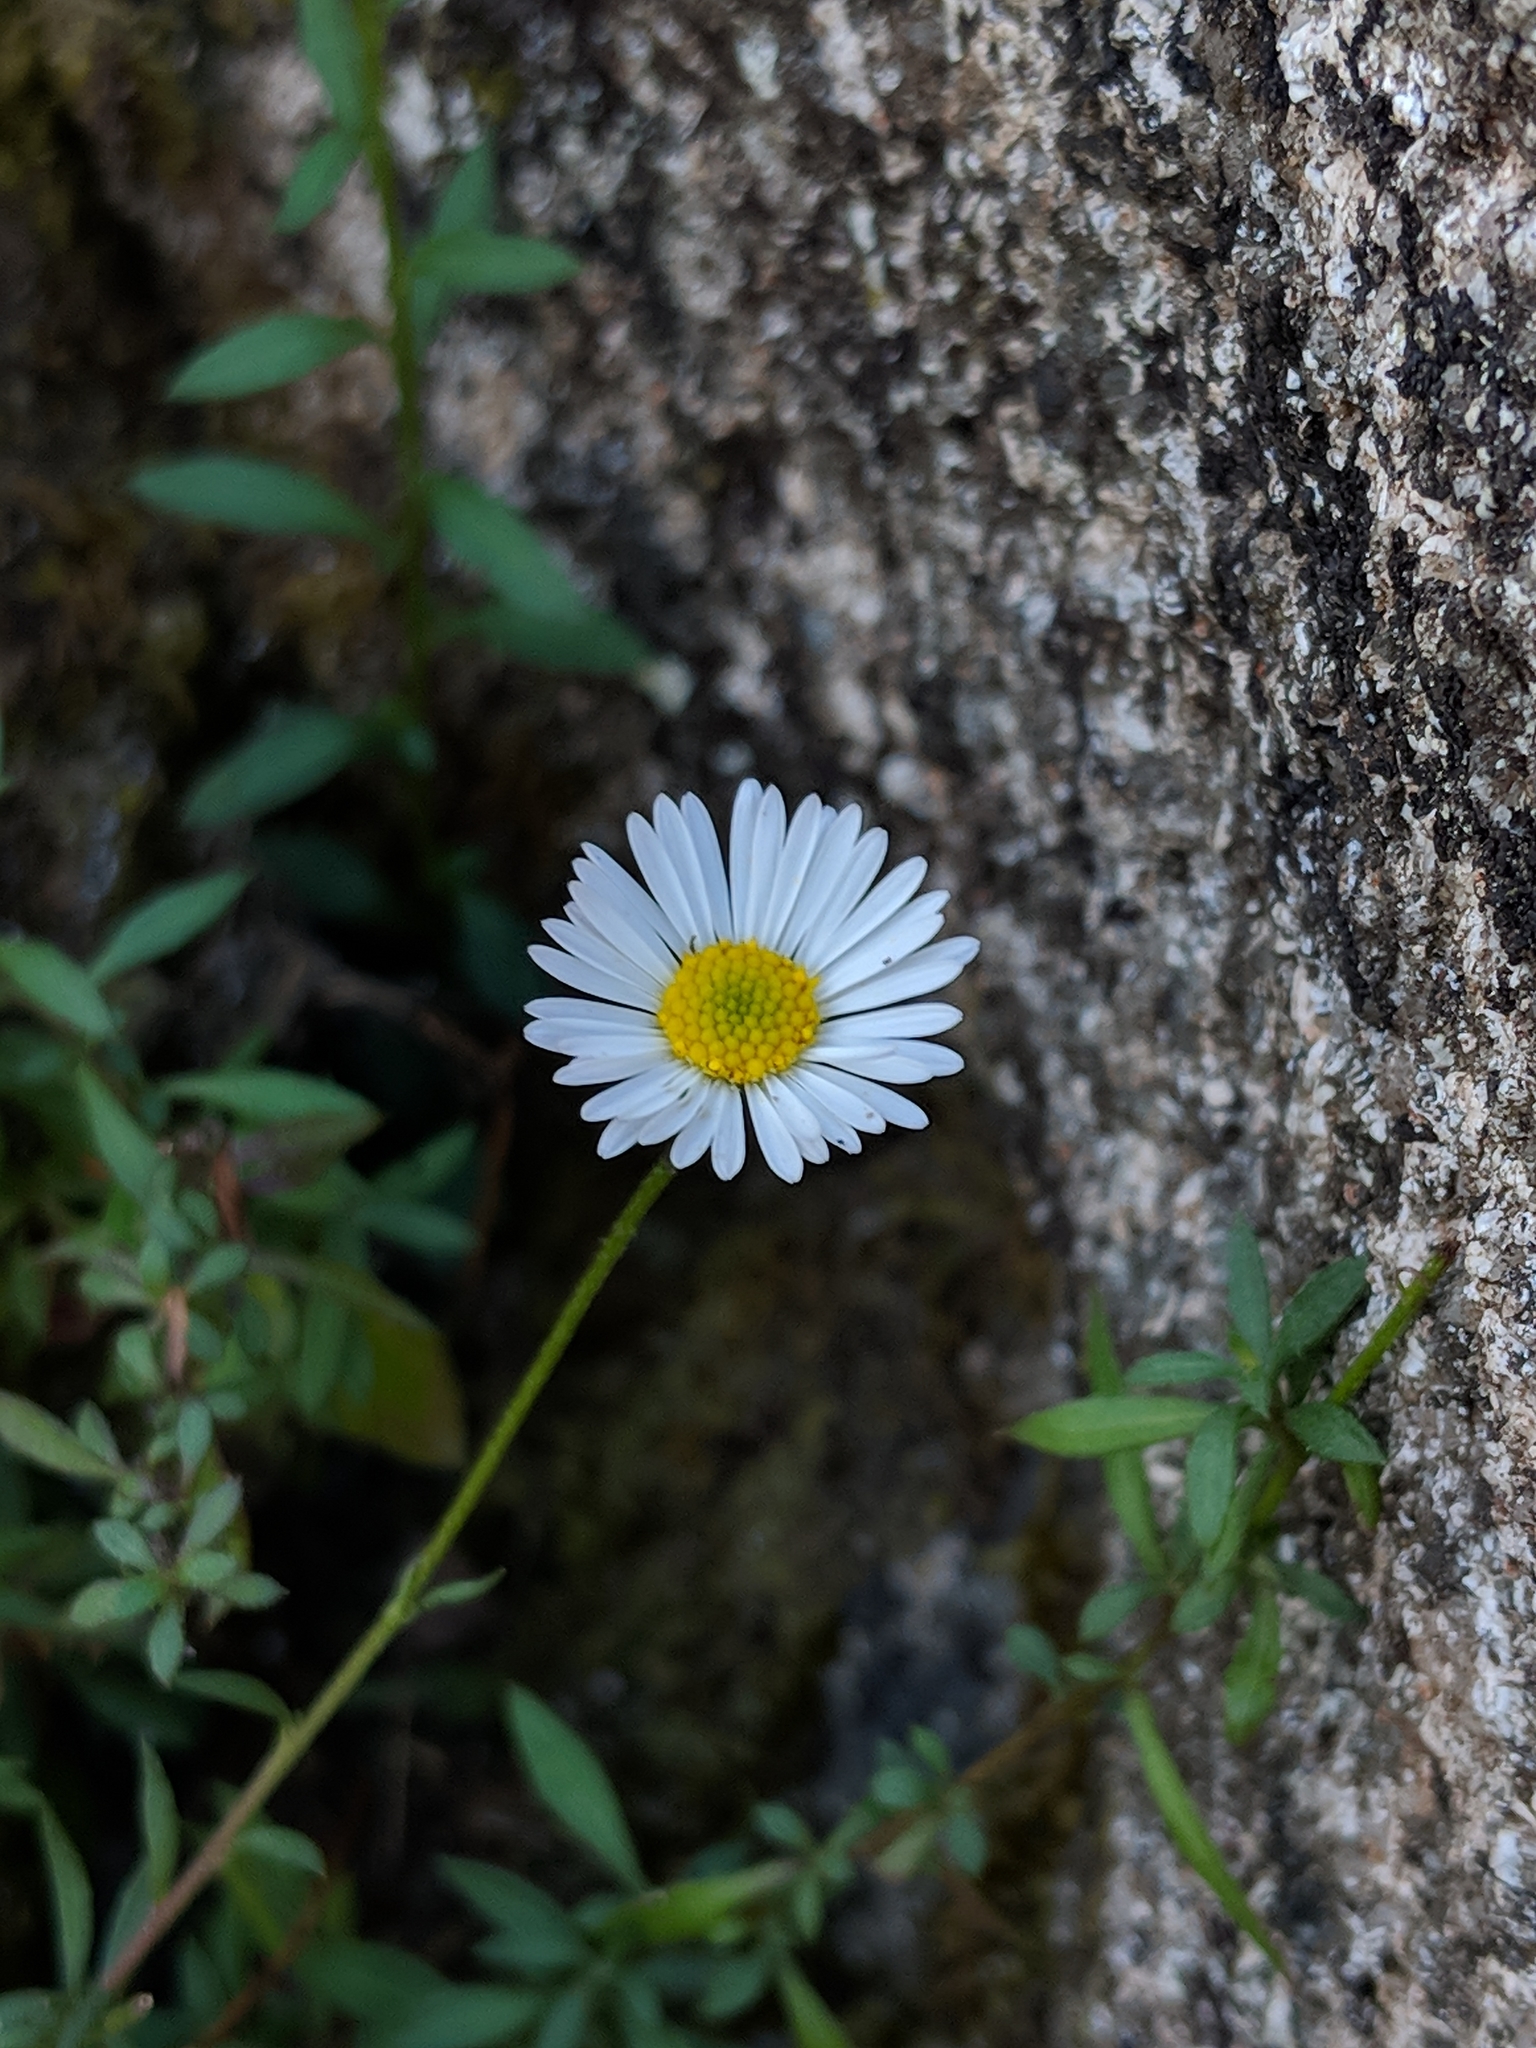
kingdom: Plantae
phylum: Tracheophyta
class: Magnoliopsida
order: Asterales
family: Asteraceae
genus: Erigeron
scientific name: Erigeron karvinskianus
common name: Mexican fleabane
